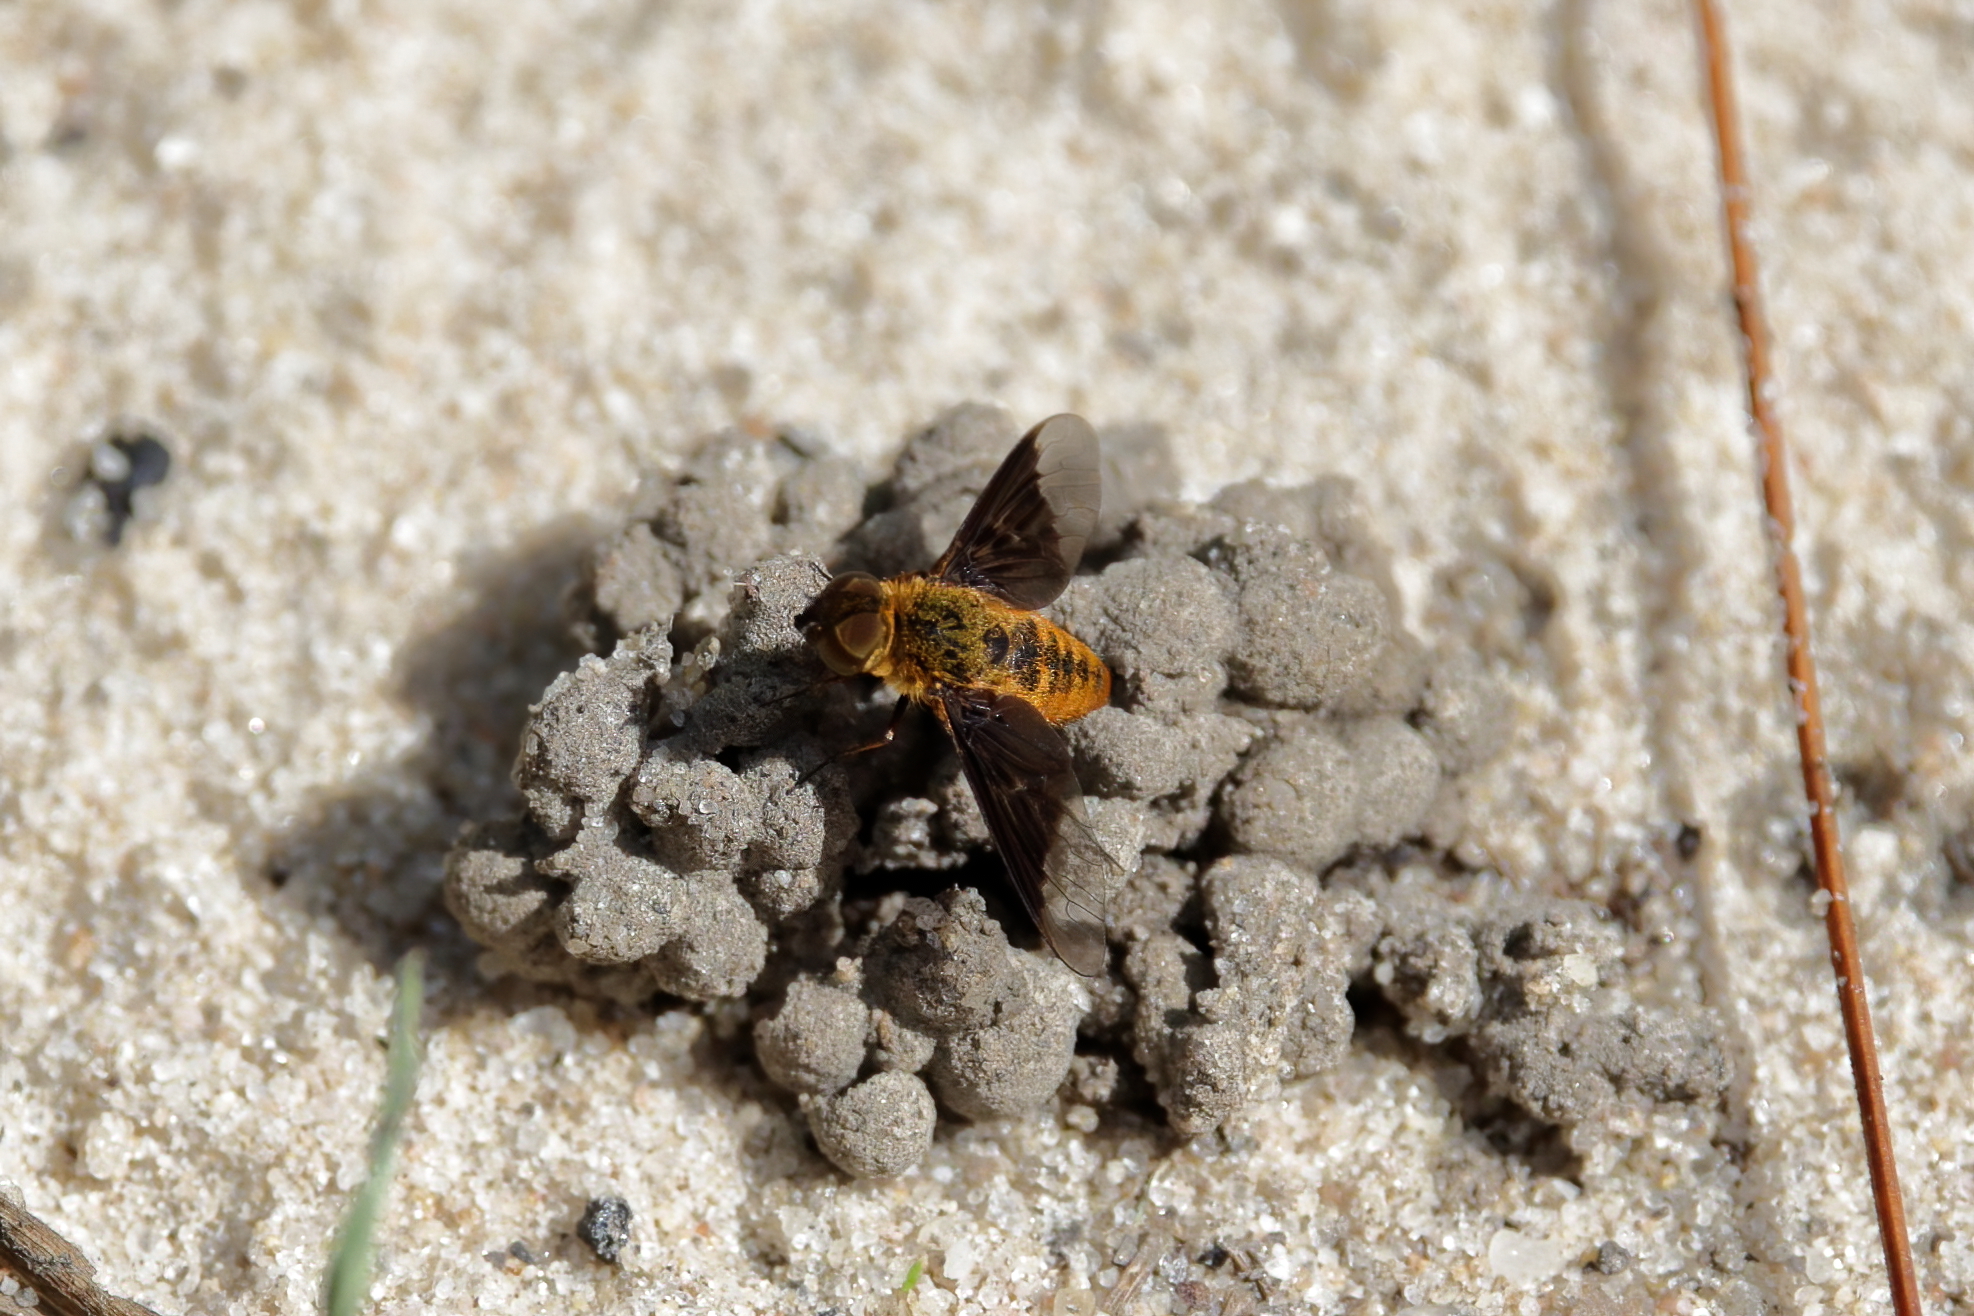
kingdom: Animalia
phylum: Arthropoda
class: Insecta
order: Diptera
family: Bombyliidae
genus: Chrysanthrax
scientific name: Chrysanthrax cypris
